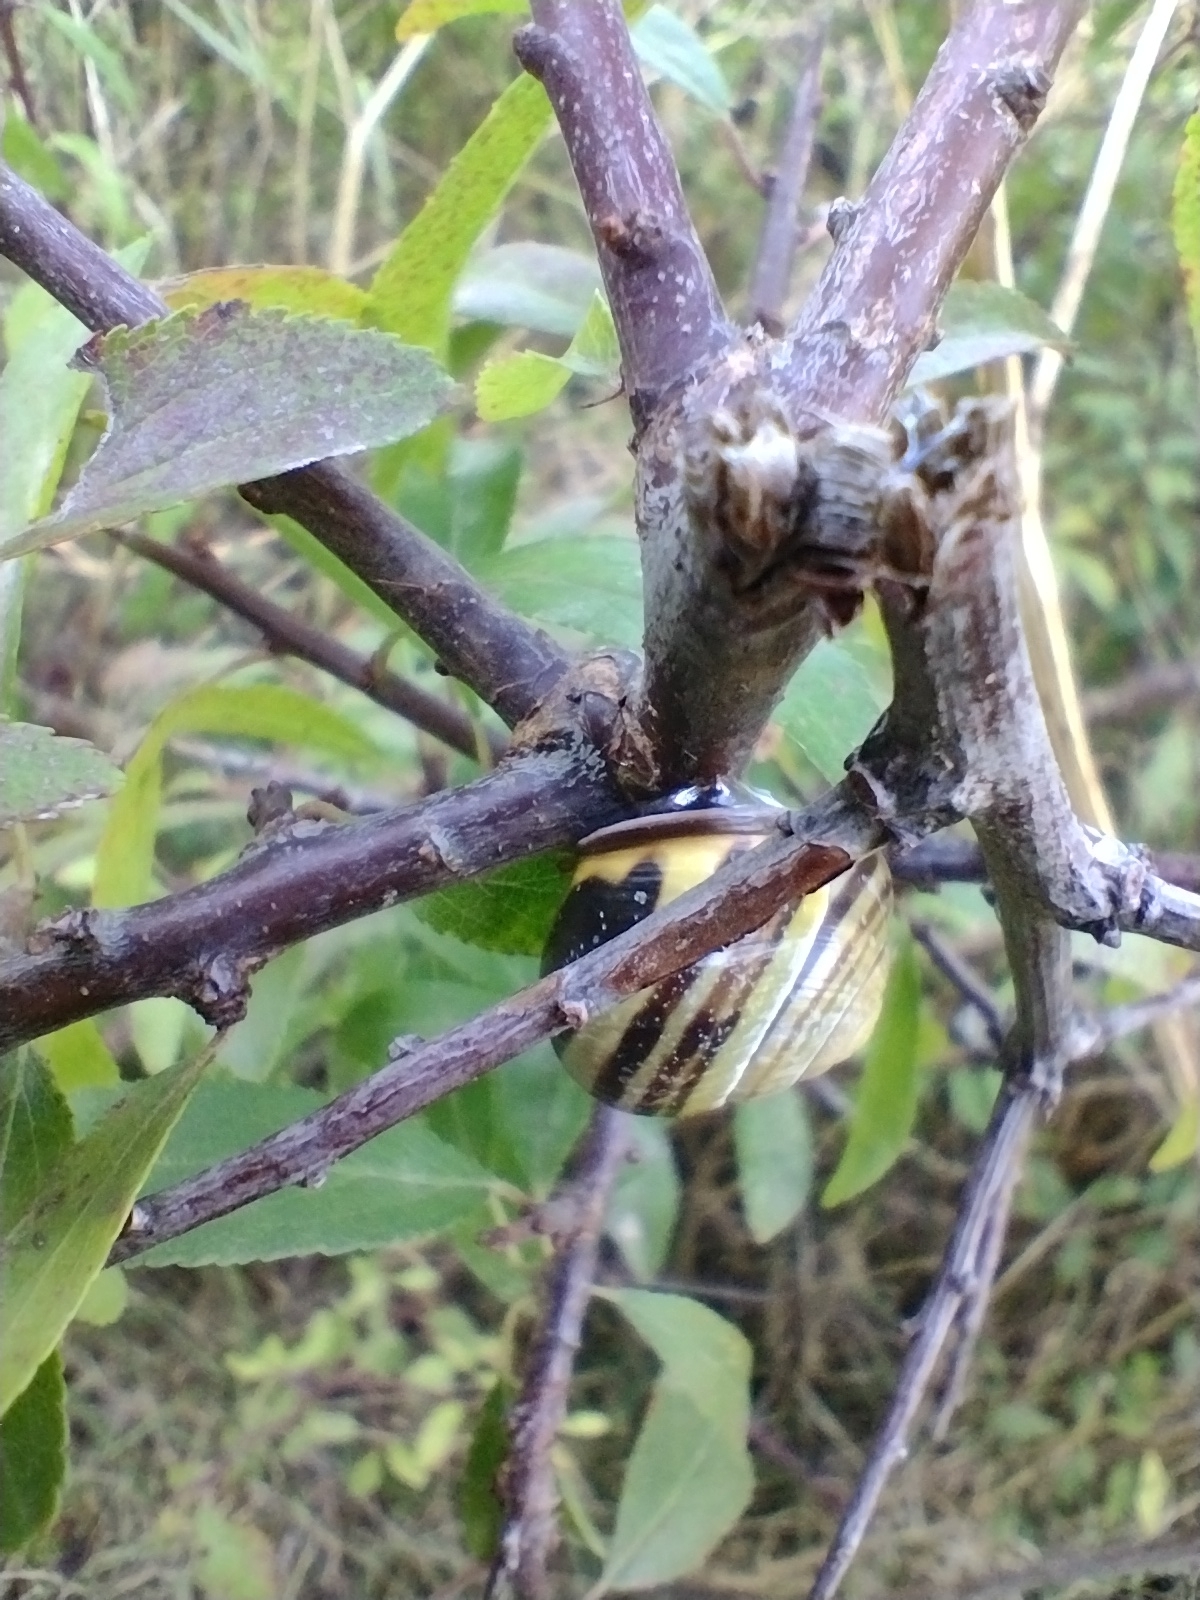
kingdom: Animalia
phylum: Mollusca
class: Gastropoda
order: Stylommatophora
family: Helicidae
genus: Cepaea
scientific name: Cepaea nemoralis
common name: Grovesnail
